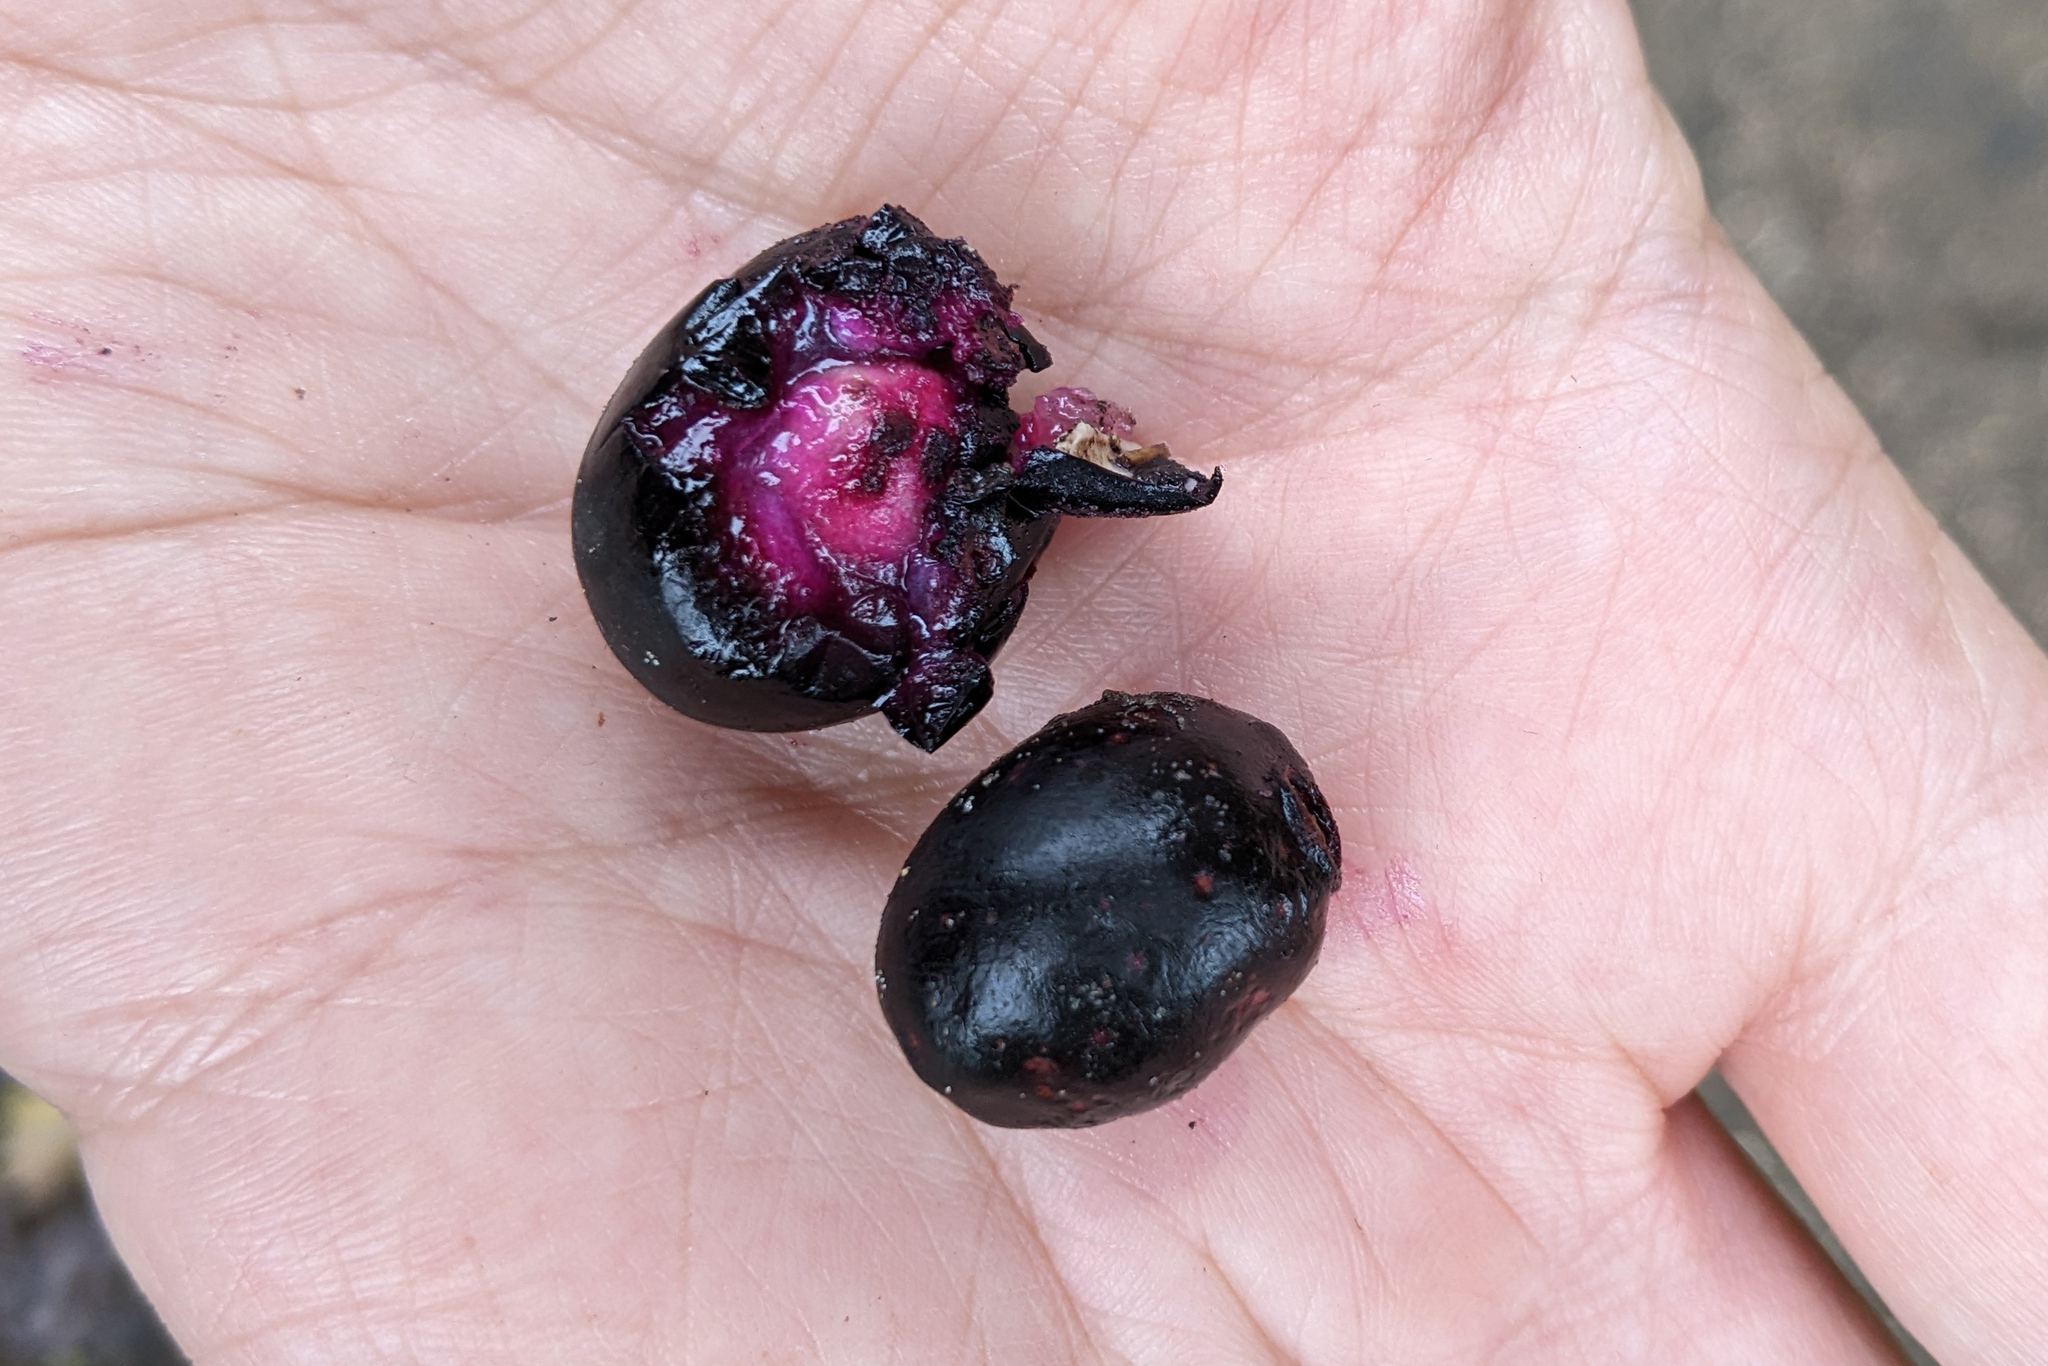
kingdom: Plantae
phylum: Tracheophyta
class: Magnoliopsida
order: Myrtales
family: Myrtaceae
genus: Syzygium
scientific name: Syzygium cumini
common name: Java plum
